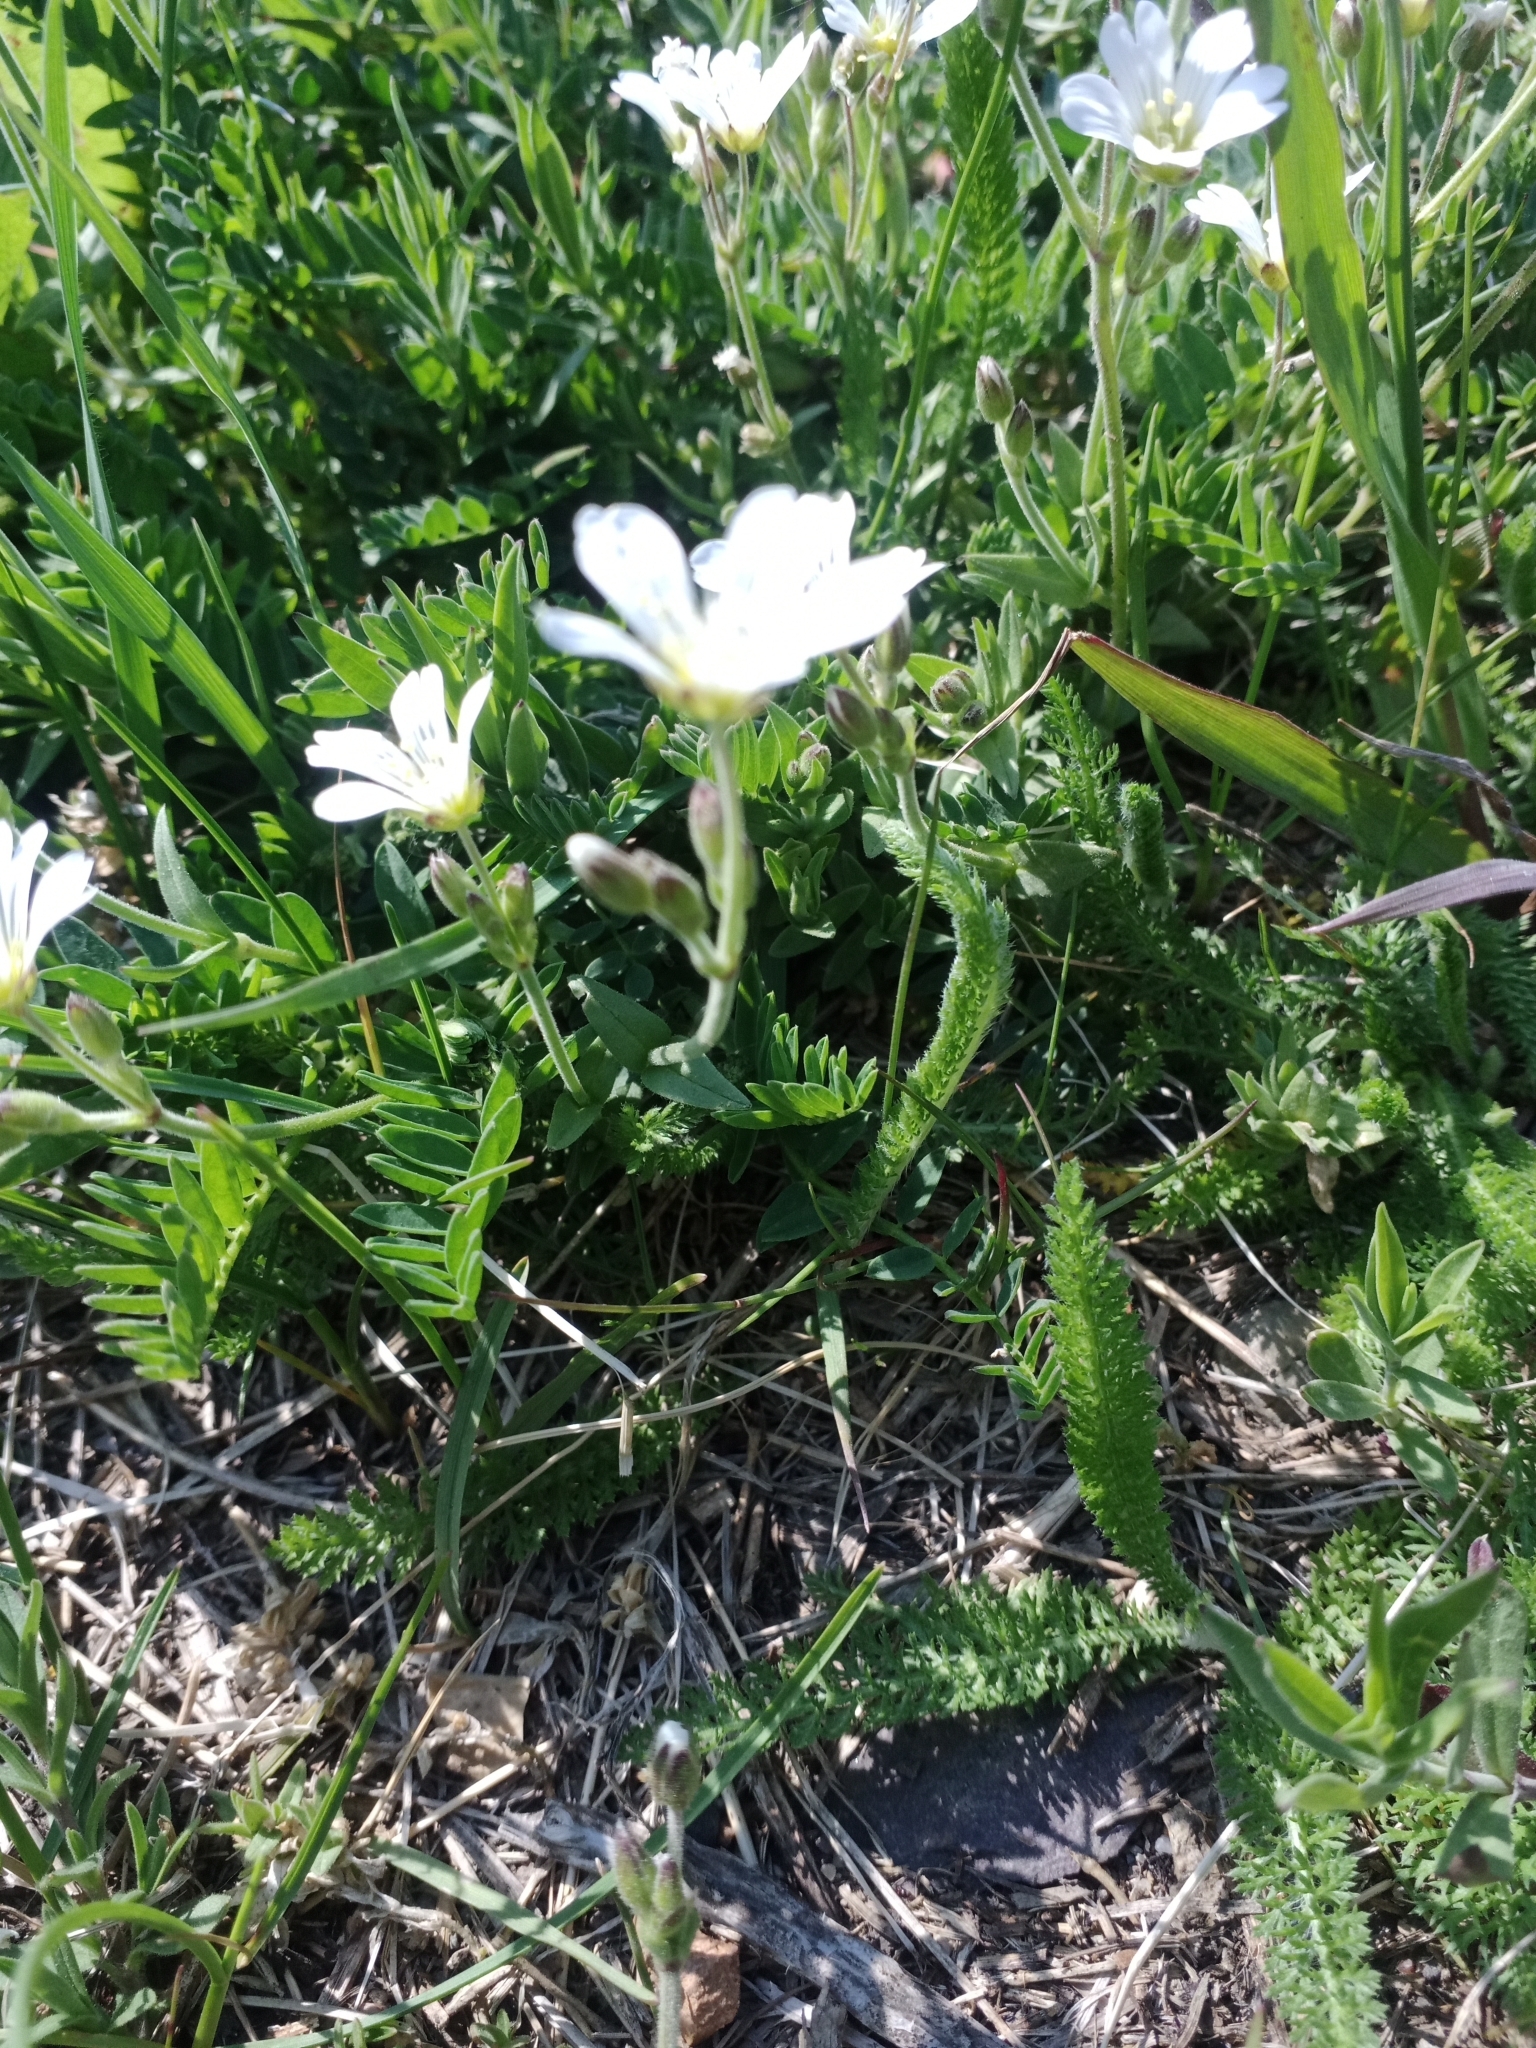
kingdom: Plantae
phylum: Tracheophyta
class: Magnoliopsida
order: Caryophyllales
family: Caryophyllaceae
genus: Cerastium
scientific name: Cerastium arvense
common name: Field mouse-ear
